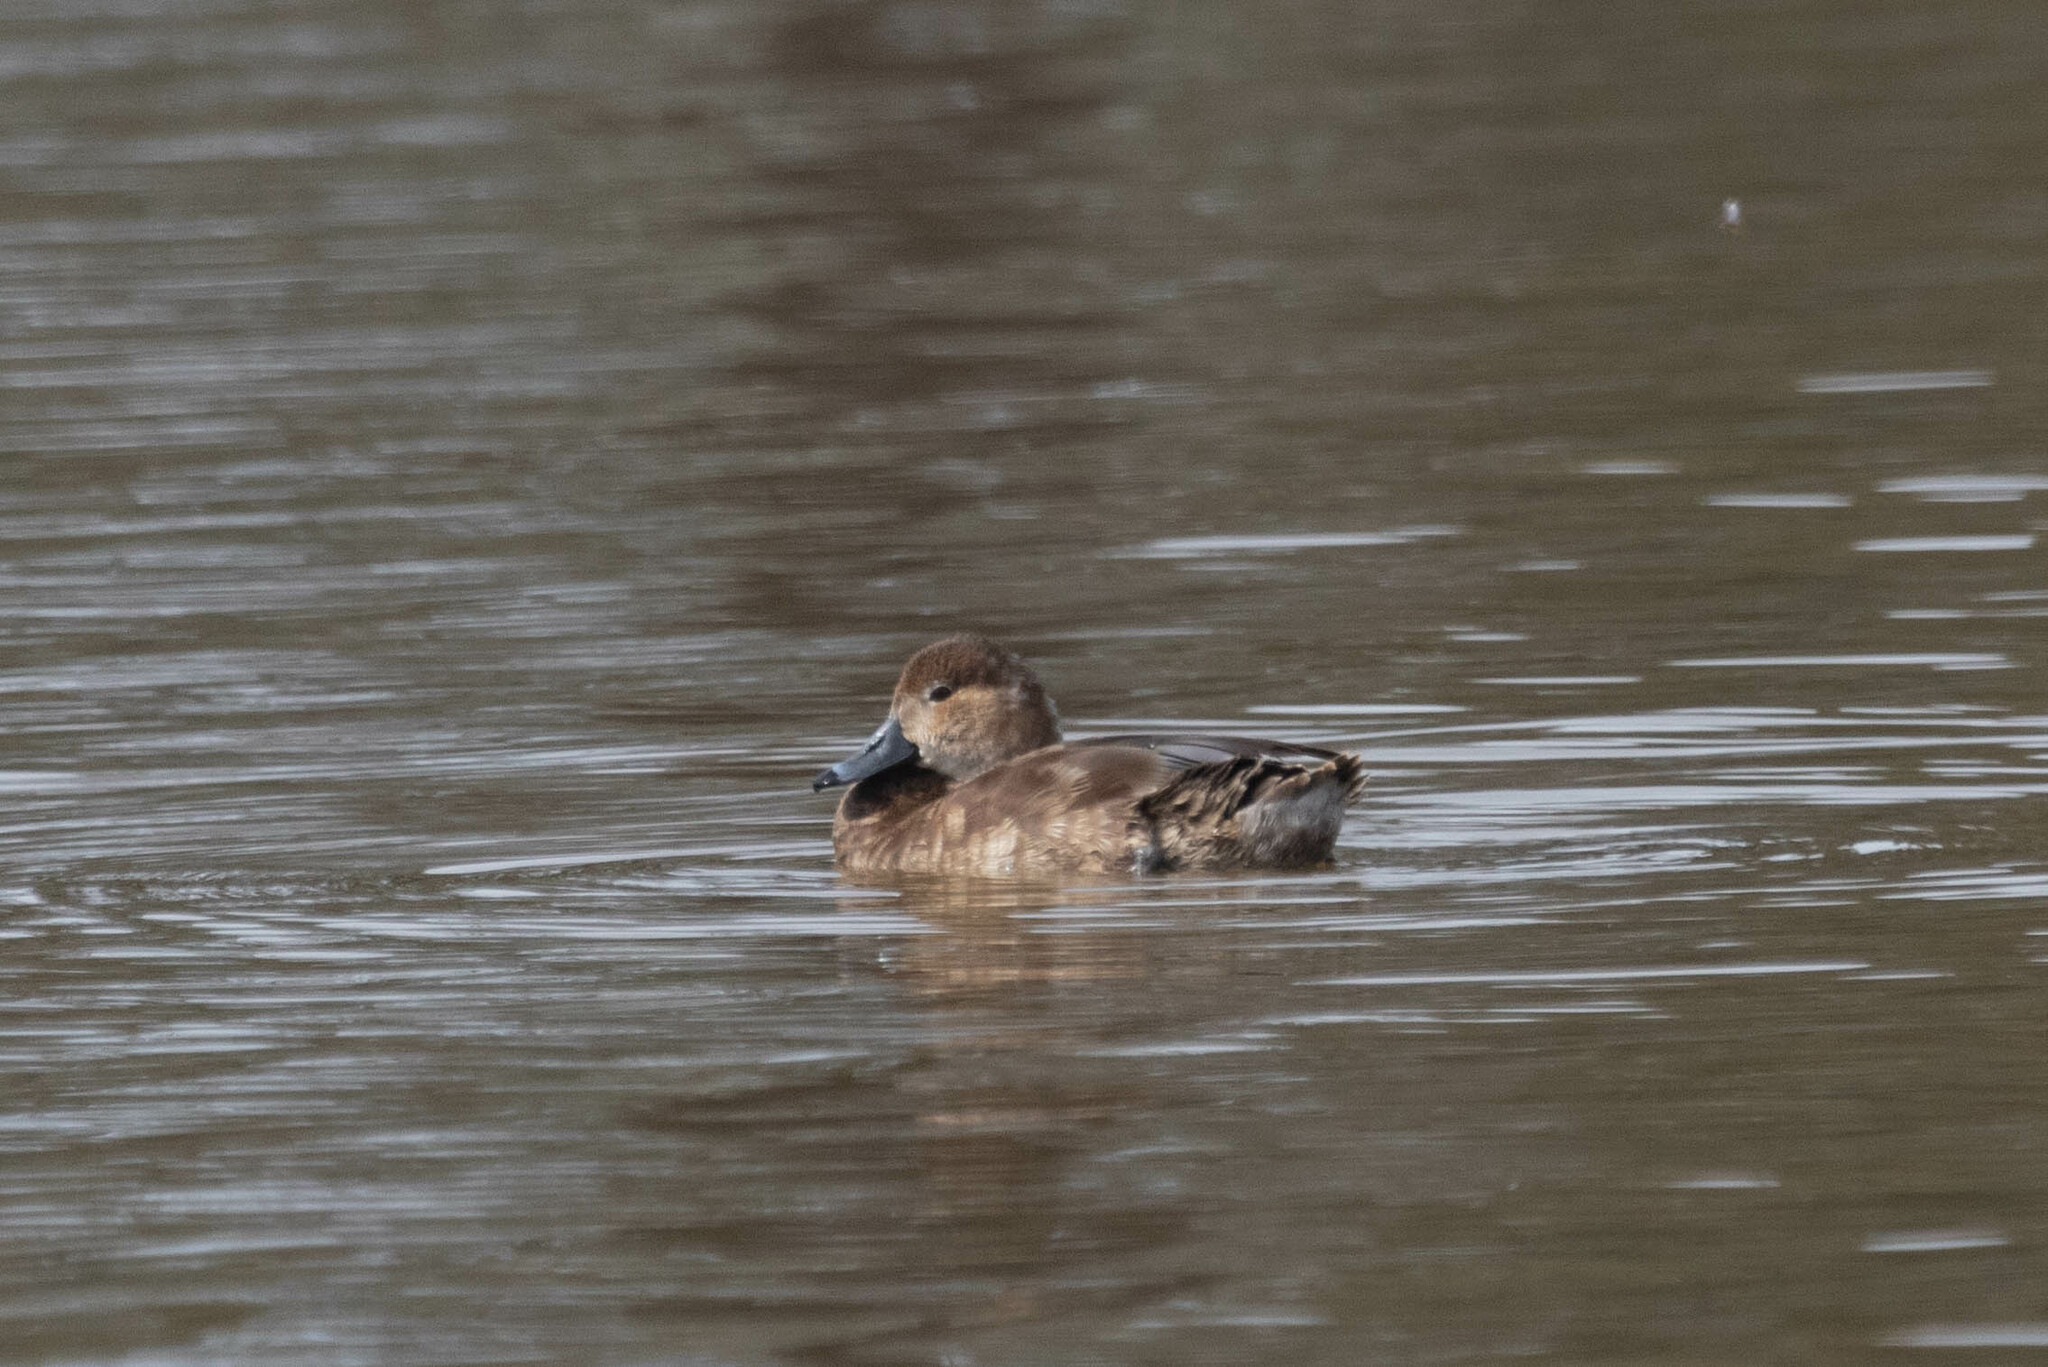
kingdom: Animalia
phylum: Chordata
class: Aves
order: Anseriformes
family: Anatidae
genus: Aythya
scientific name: Aythya collaris
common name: Ring-necked duck
